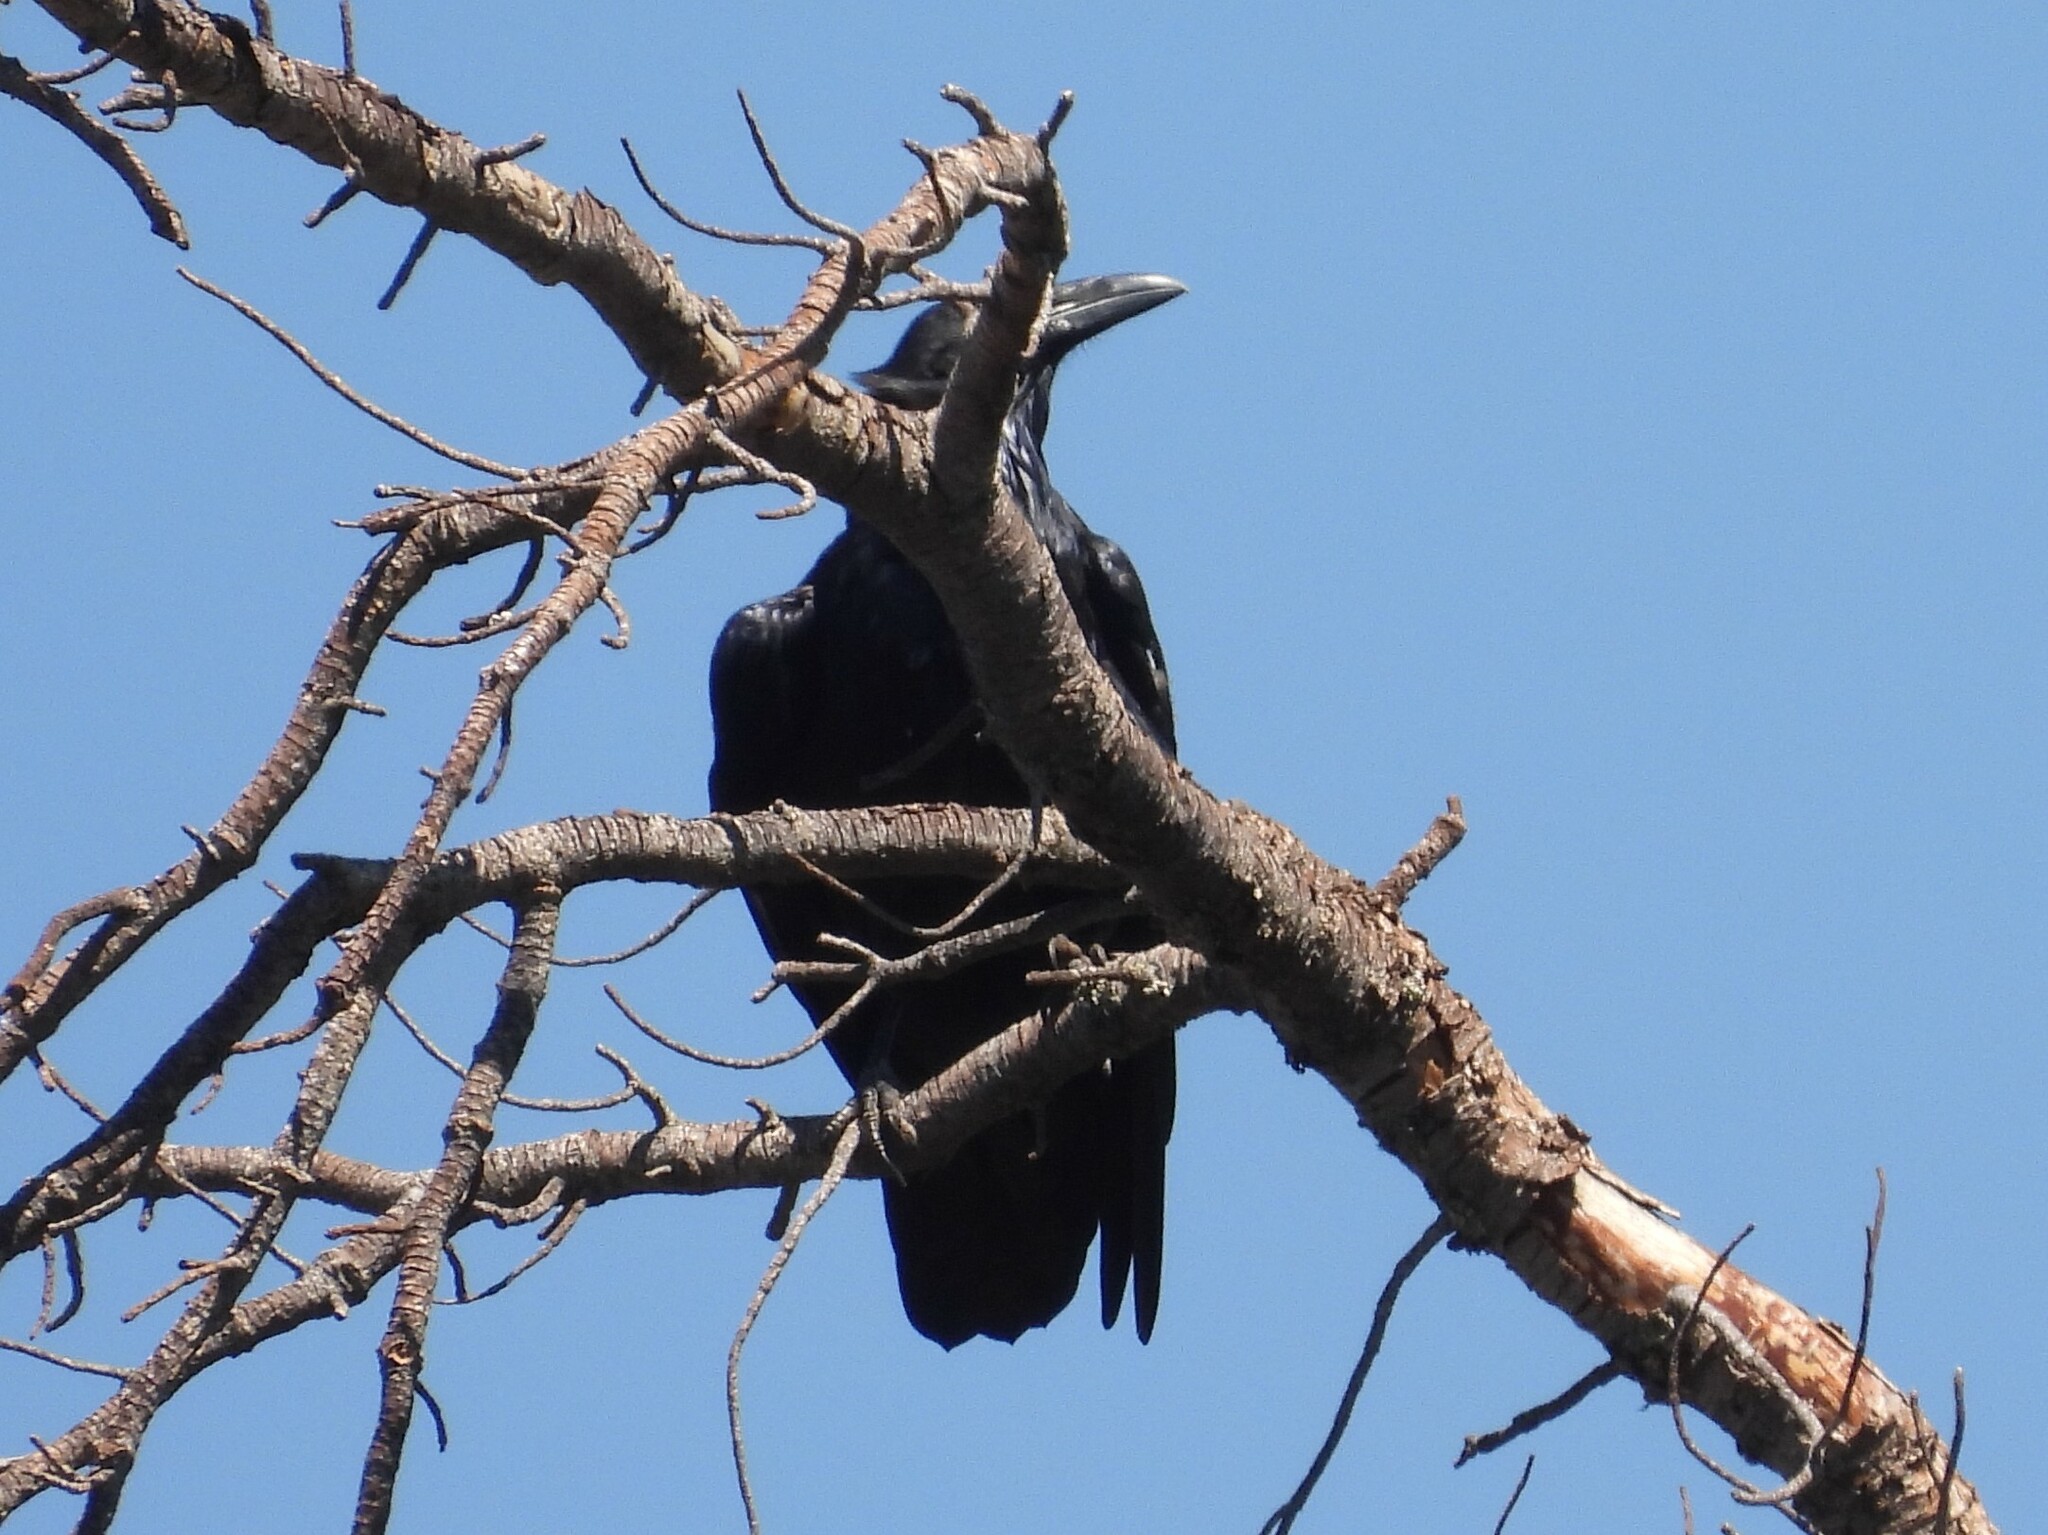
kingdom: Animalia
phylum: Chordata
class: Aves
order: Passeriformes
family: Corvidae
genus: Corvus
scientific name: Corvus corax
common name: Common raven
